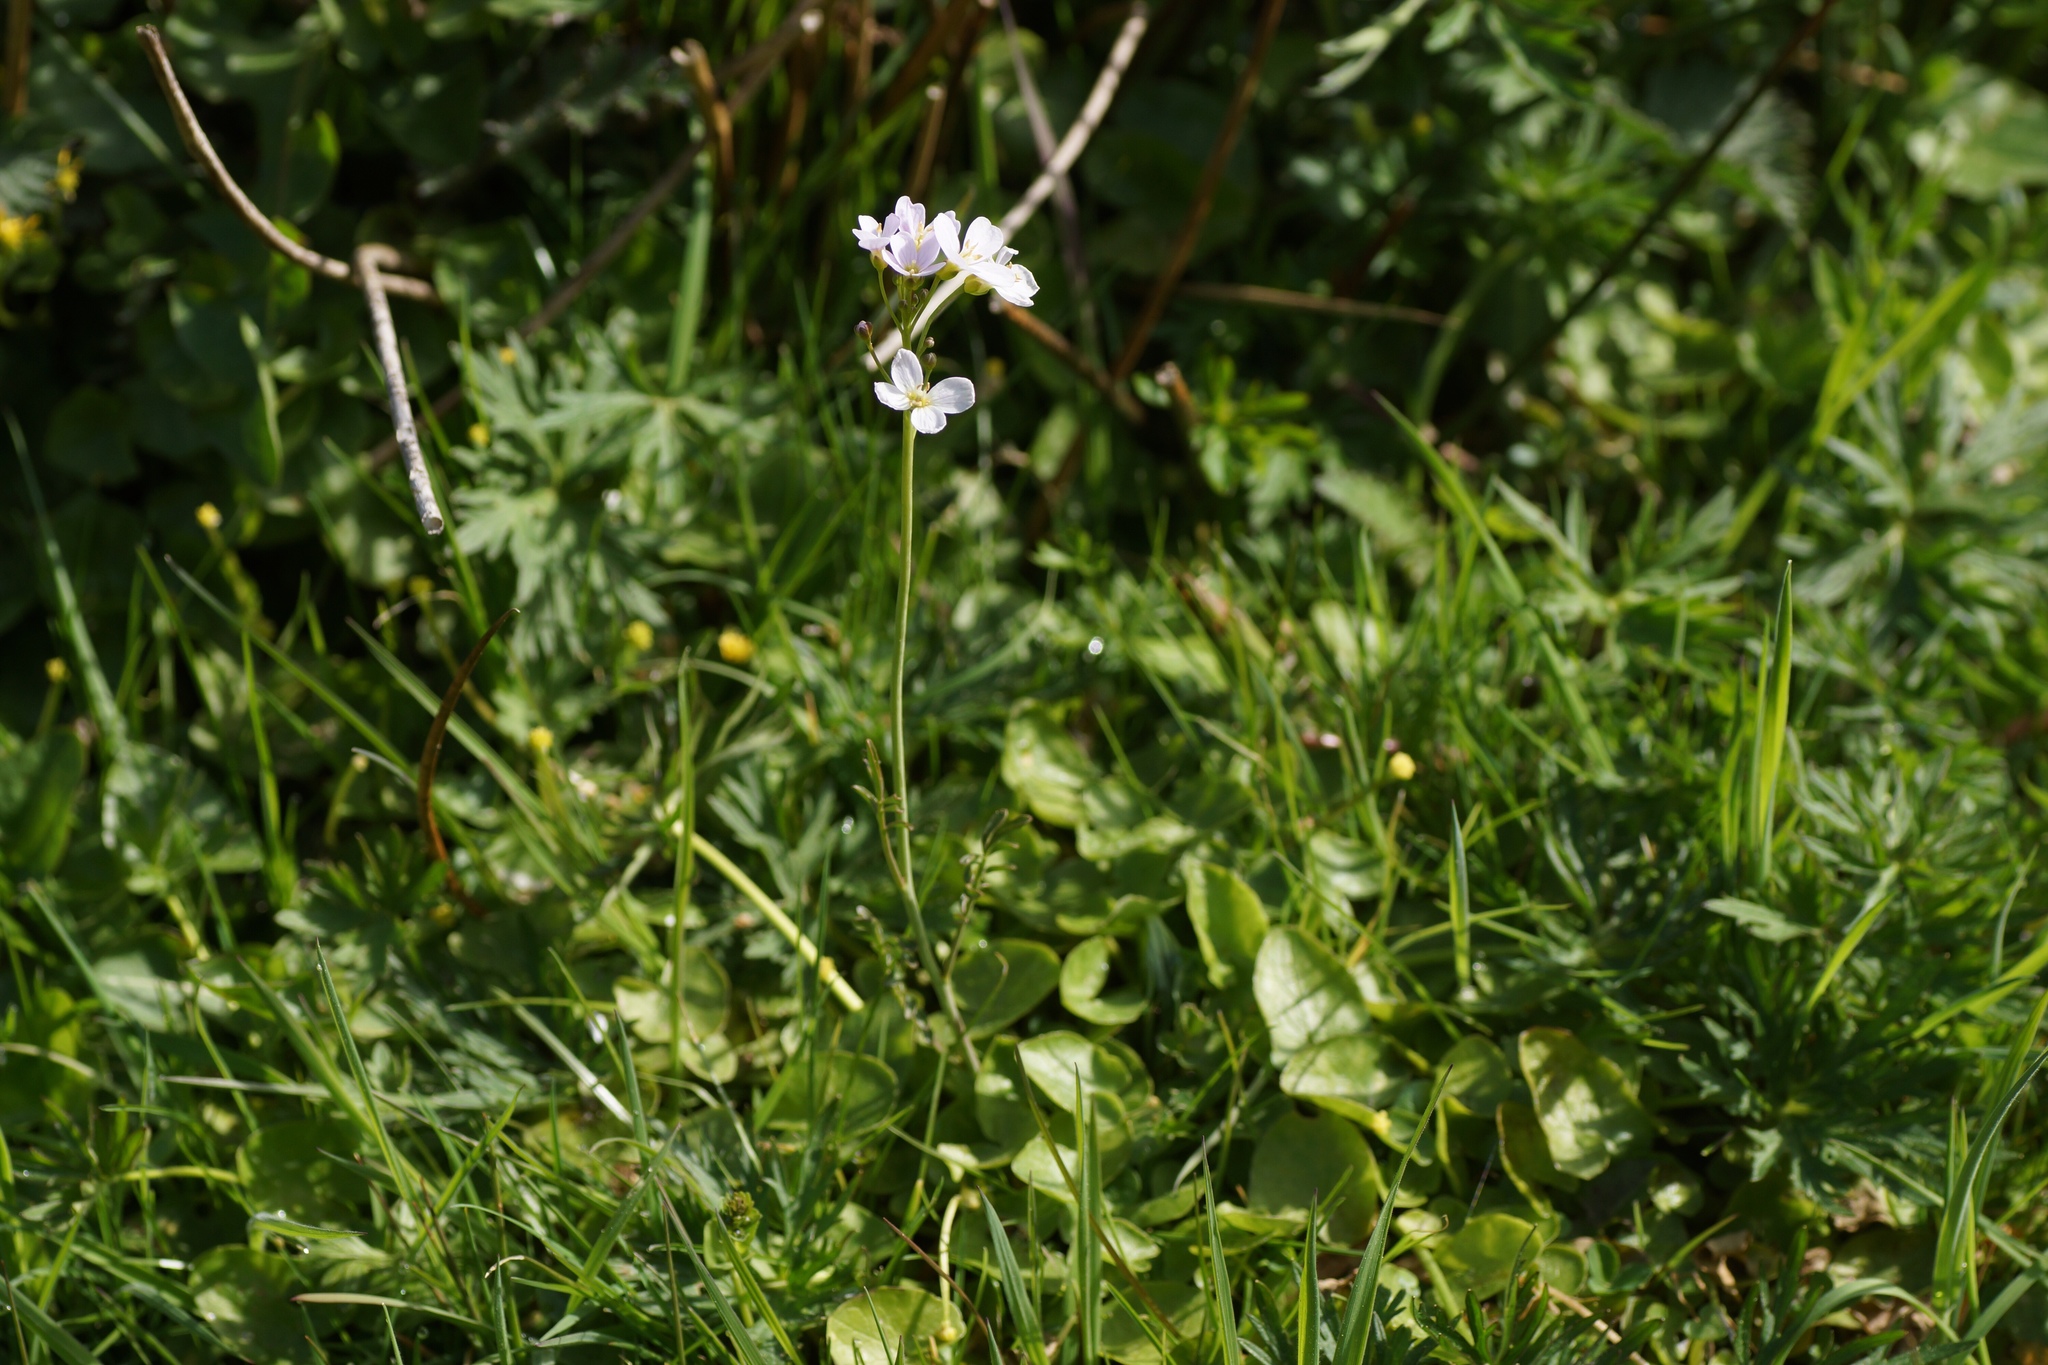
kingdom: Plantae
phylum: Tracheophyta
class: Magnoliopsida
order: Brassicales
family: Brassicaceae
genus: Cardamine
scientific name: Cardamine pratensis
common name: Cuckoo flower
